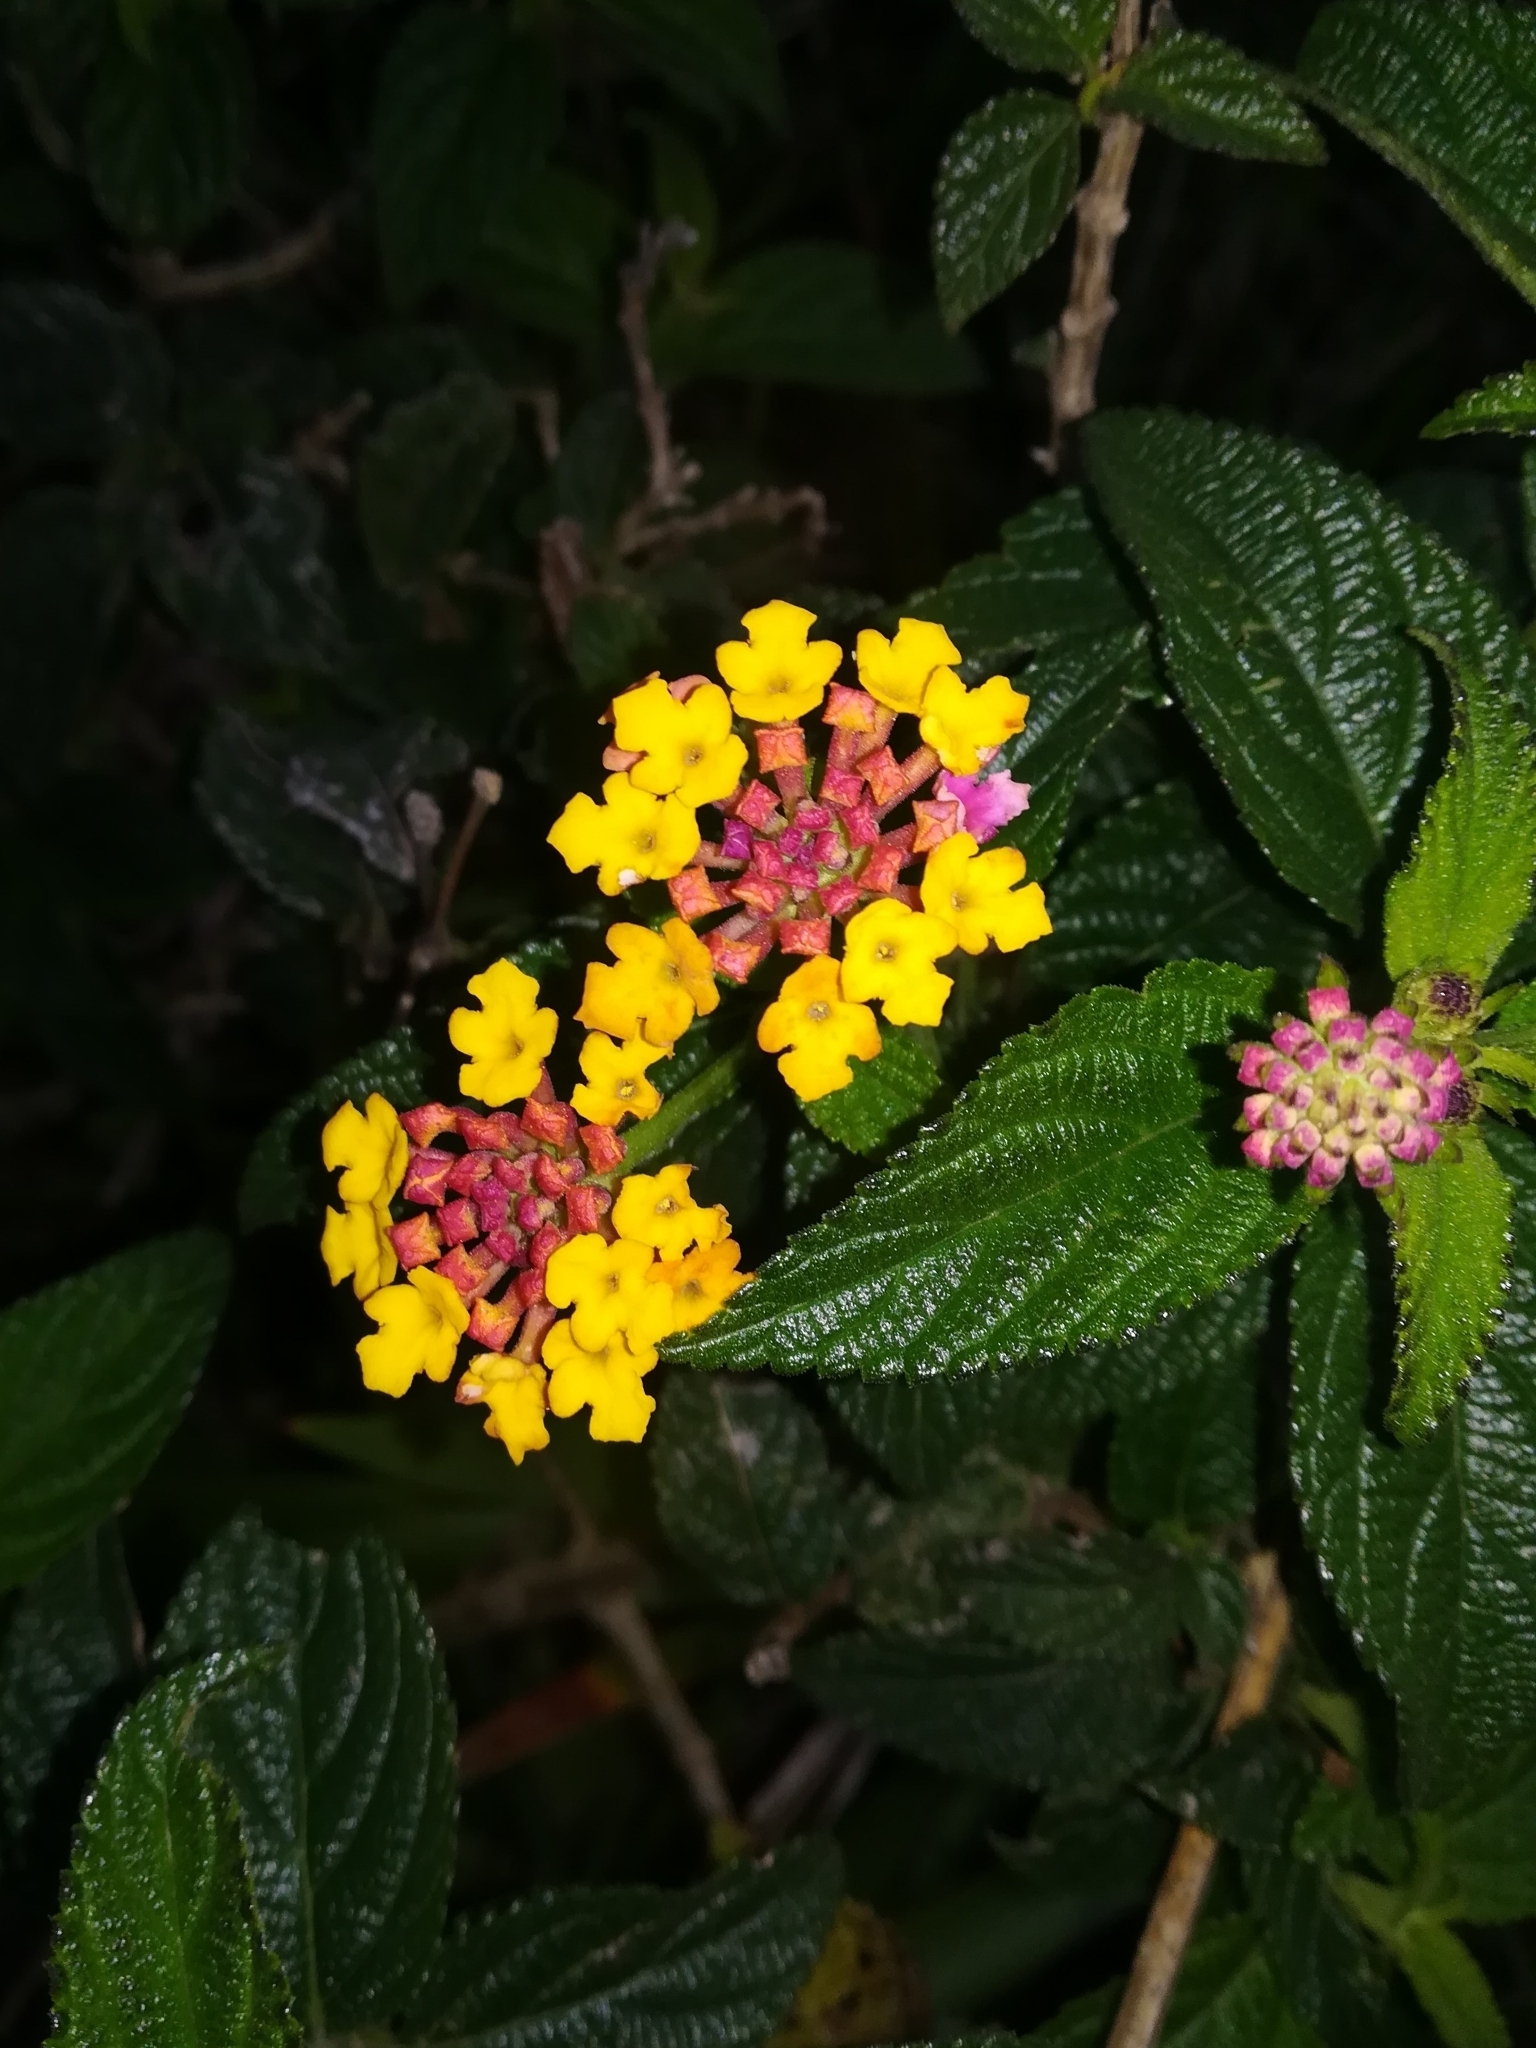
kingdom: Plantae
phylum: Tracheophyta
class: Magnoliopsida
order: Lamiales
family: Verbenaceae
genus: Lantana
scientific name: Lantana camara
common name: Lantana
